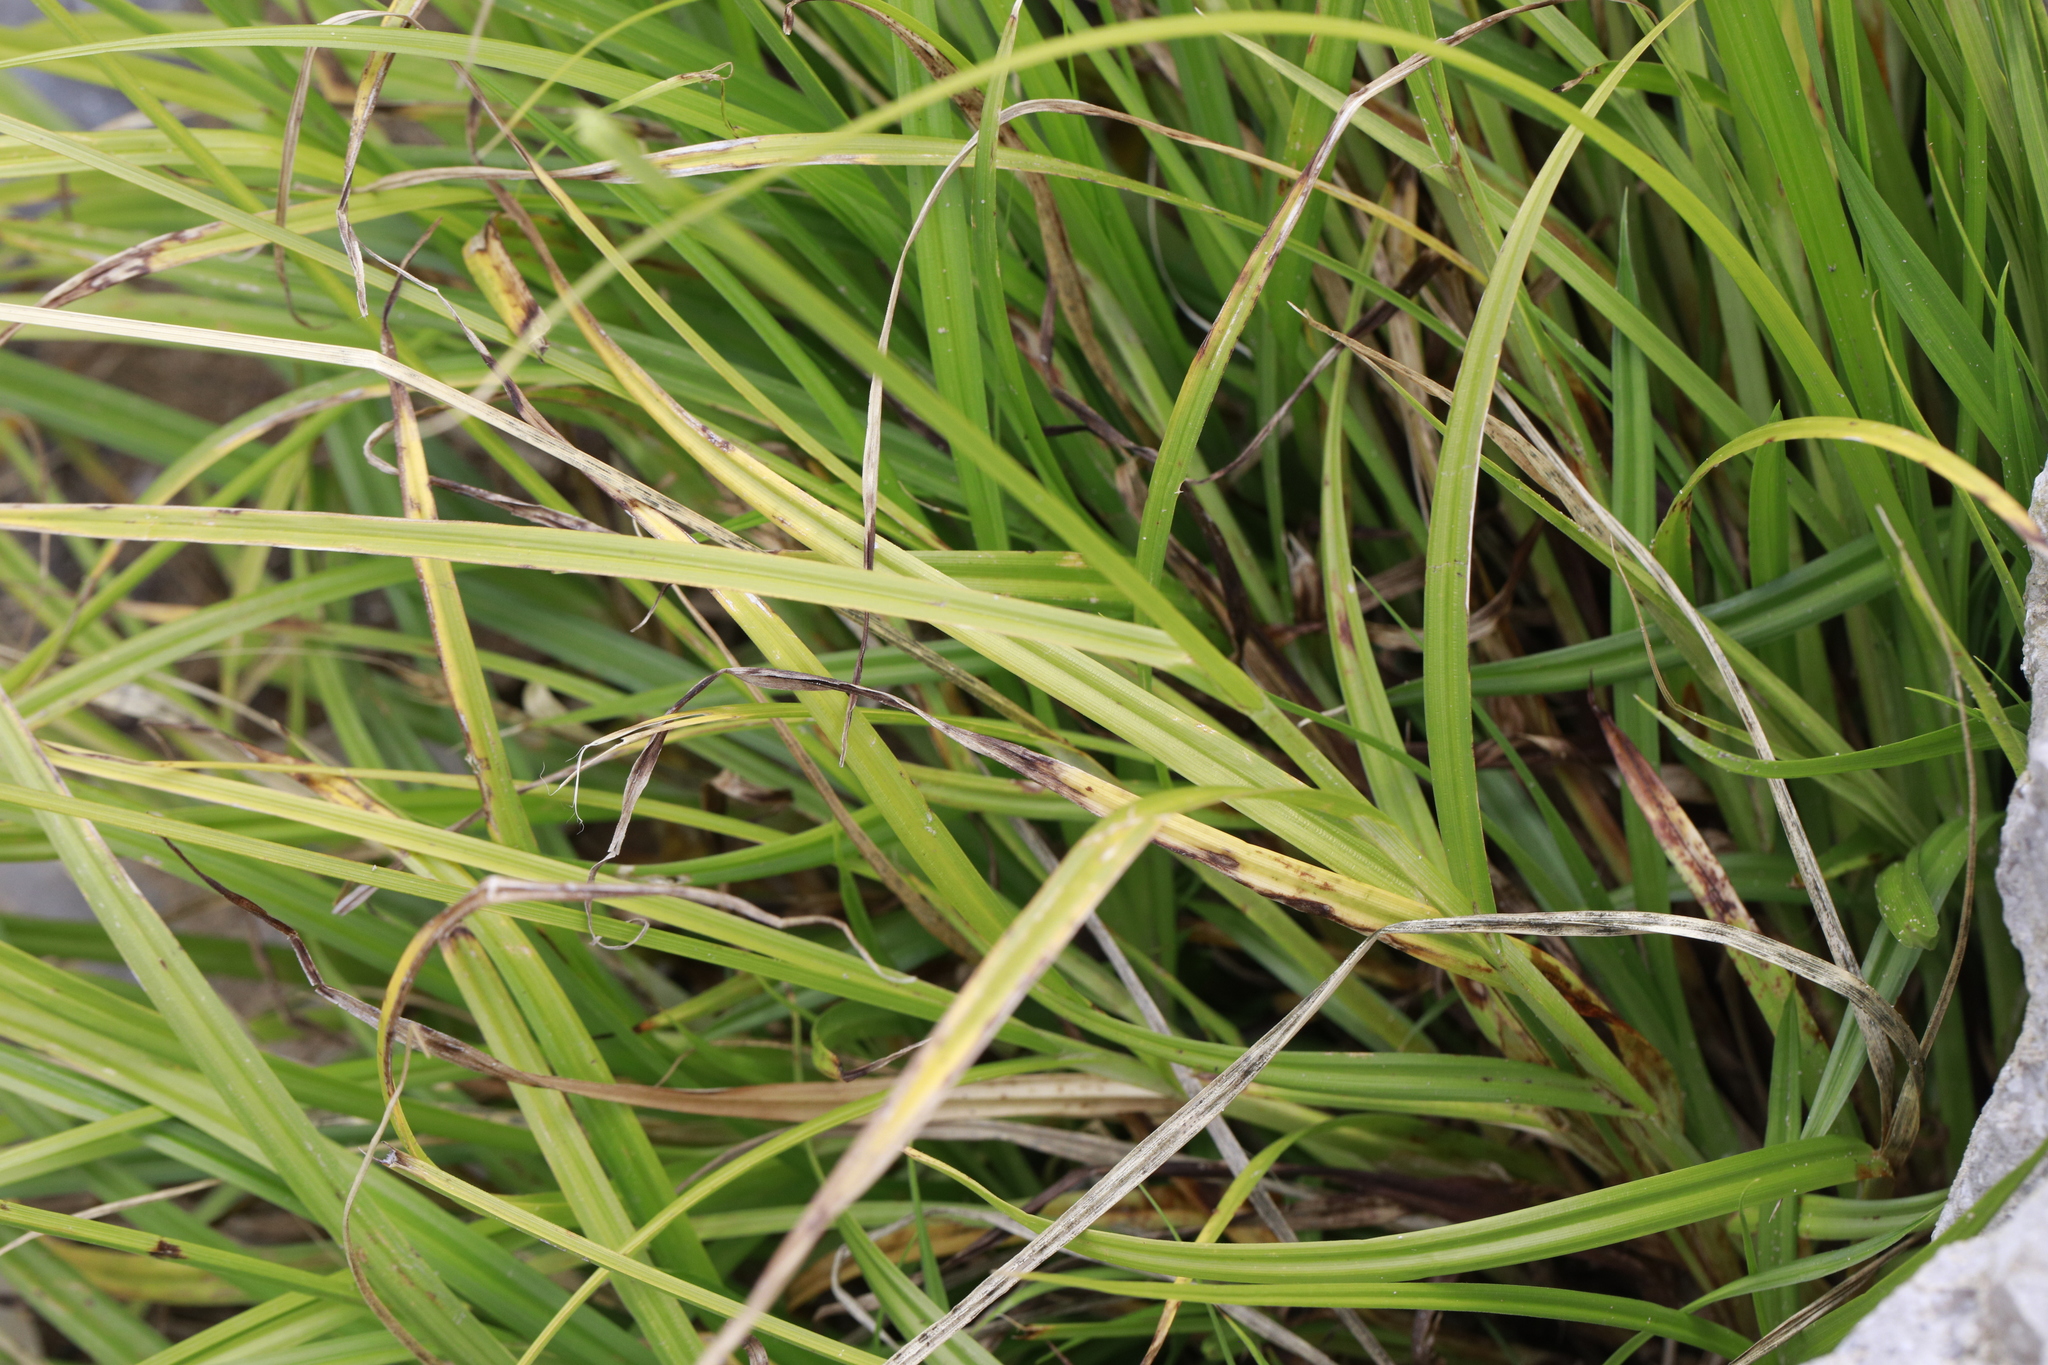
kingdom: Plantae
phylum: Tracheophyta
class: Liliopsida
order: Poales
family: Cyperaceae
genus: Carex
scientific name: Carex otrubae
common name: False fox-sedge
